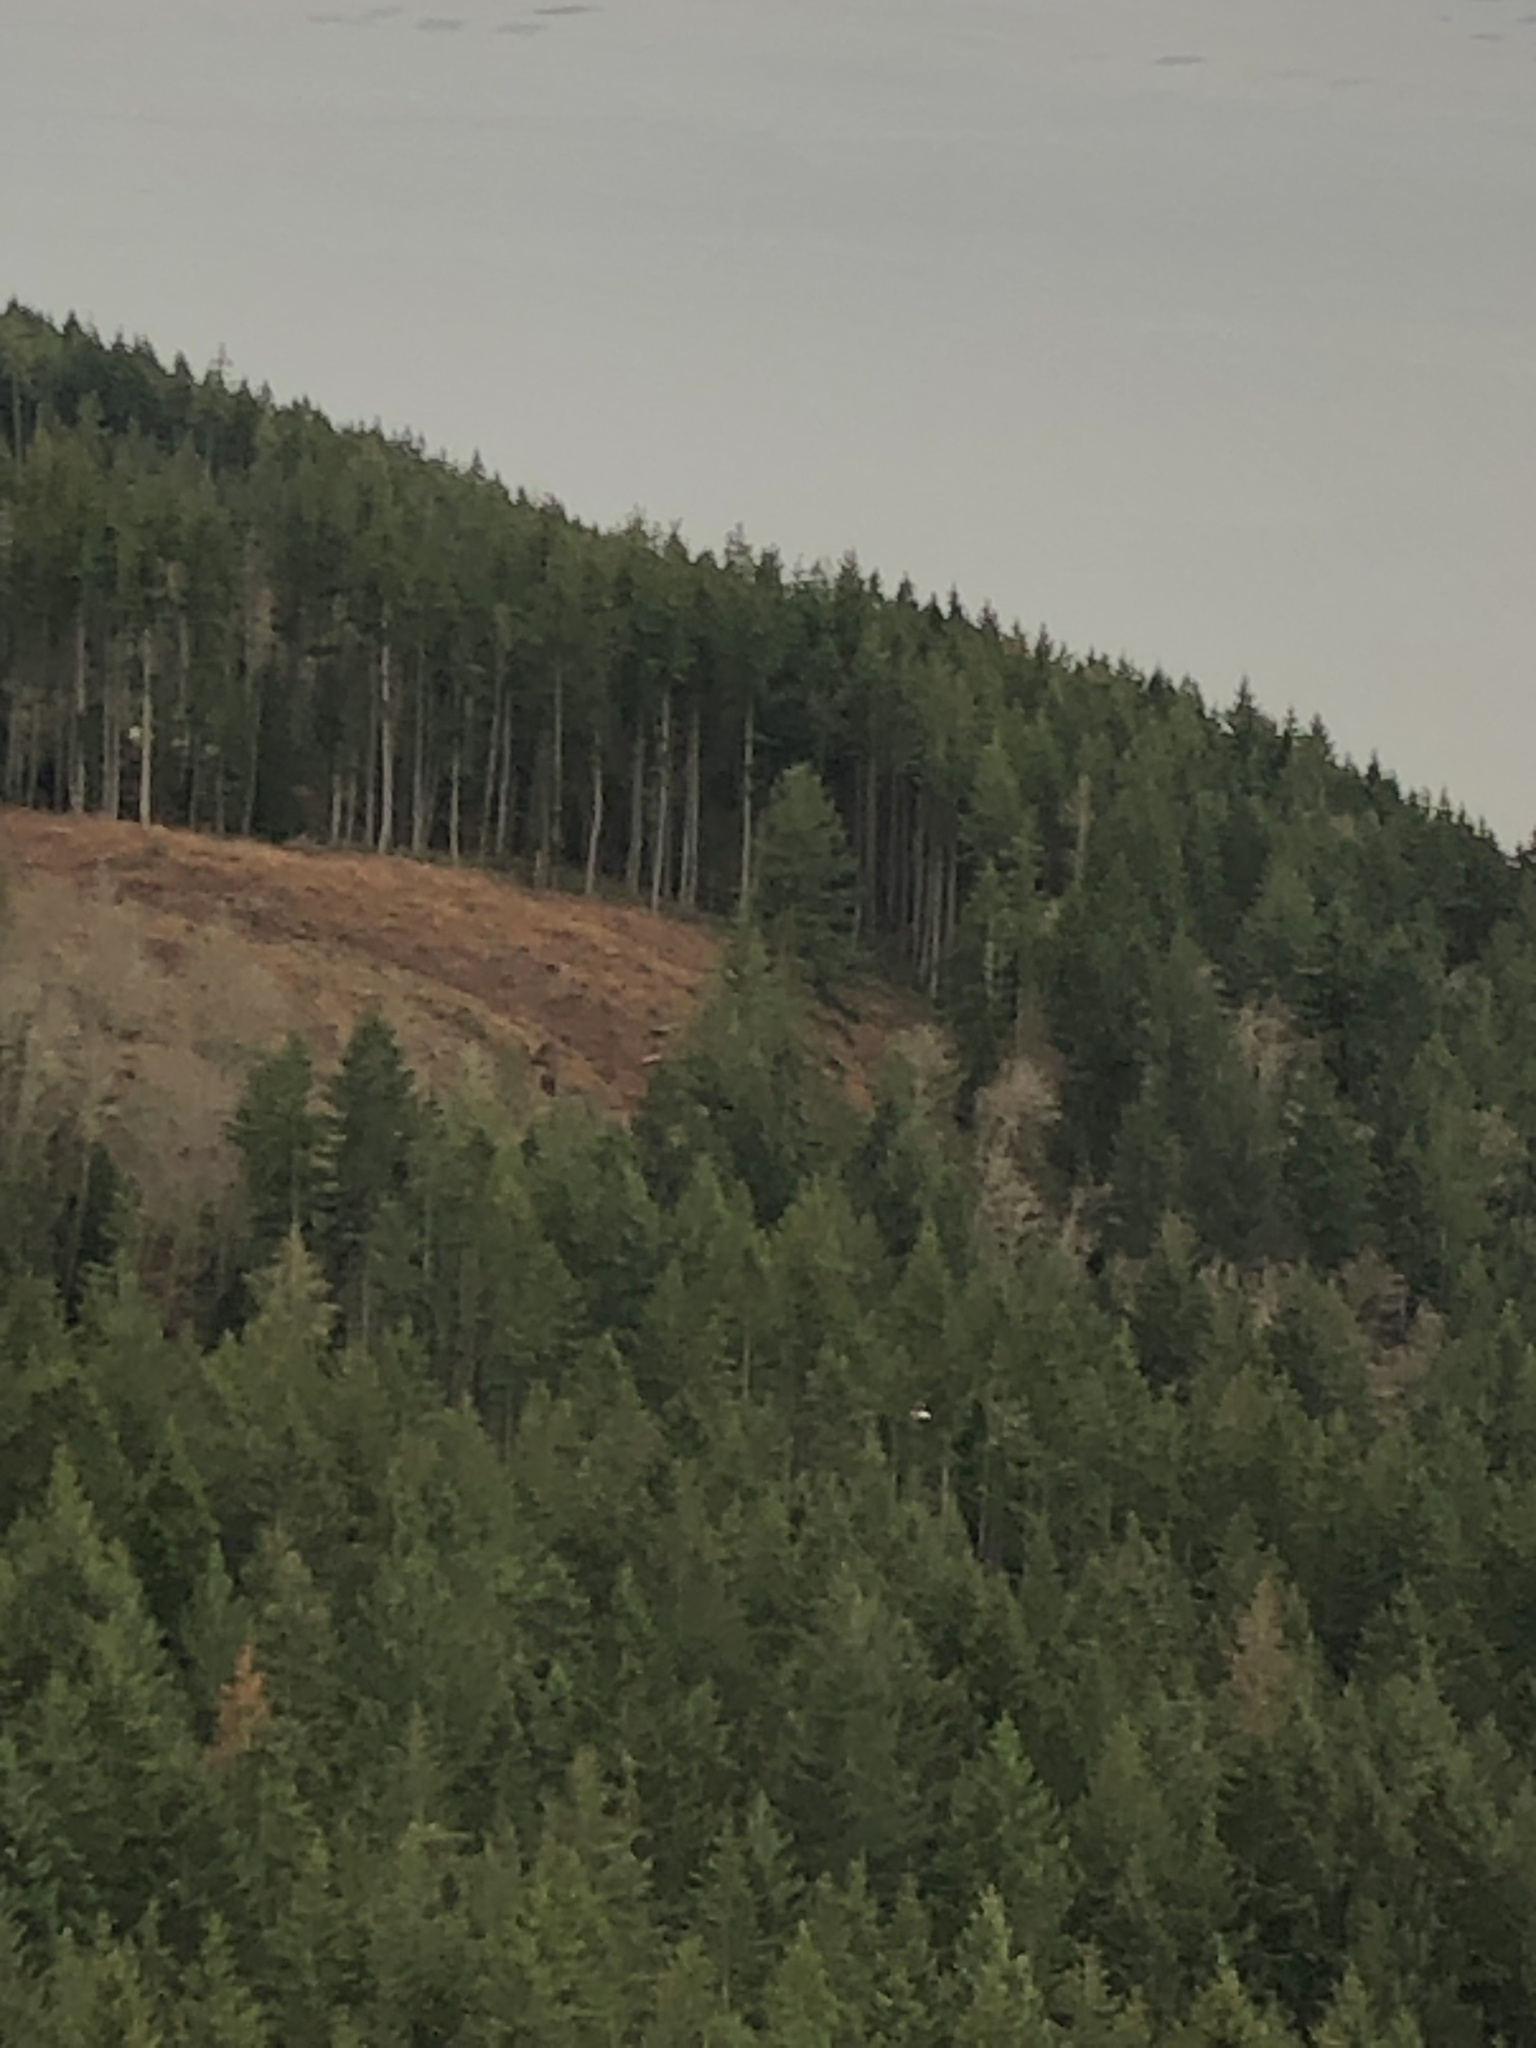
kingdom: Animalia
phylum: Chordata
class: Aves
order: Accipitriformes
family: Accipitridae
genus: Haliaeetus
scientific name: Haliaeetus leucocephalus
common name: Bald eagle
